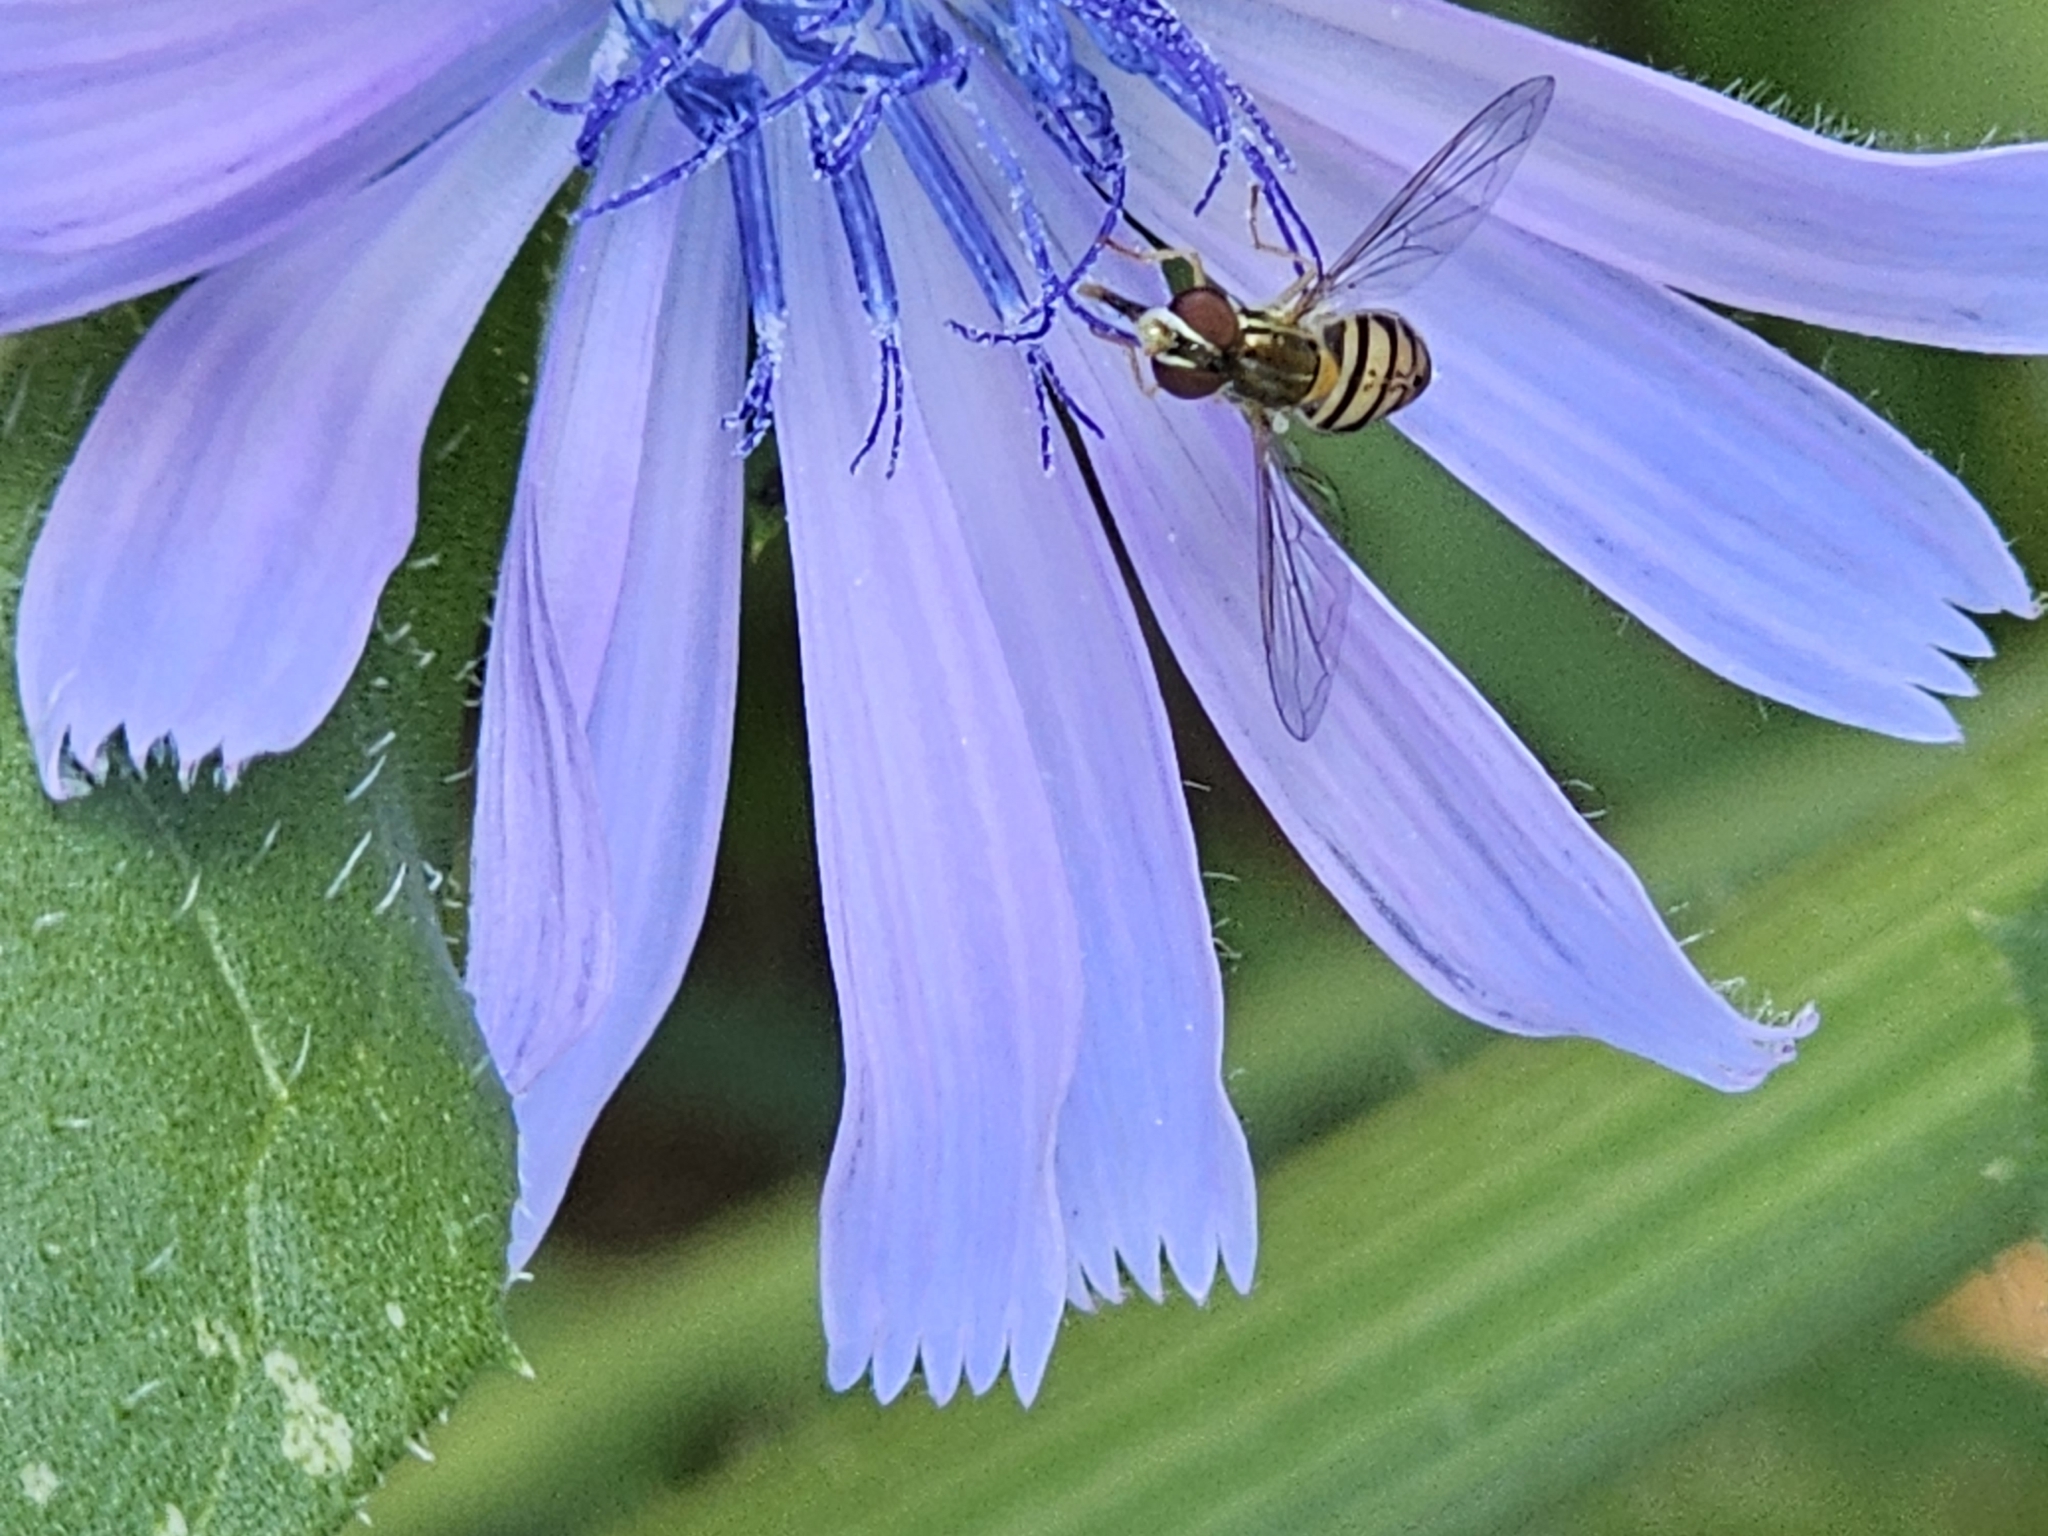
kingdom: Animalia
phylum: Arthropoda
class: Insecta
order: Diptera
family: Syrphidae
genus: Toxomerus
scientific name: Toxomerus marginatus
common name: Syrphid fly
